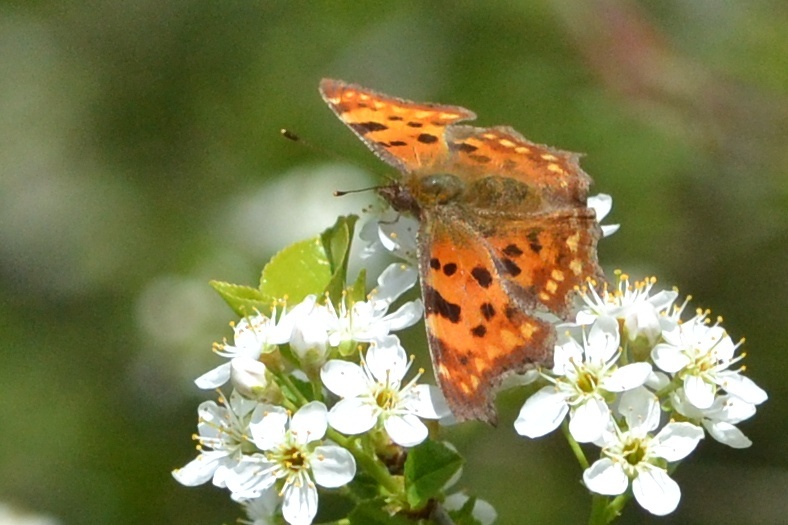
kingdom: Animalia
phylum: Arthropoda
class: Insecta
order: Lepidoptera
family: Nymphalidae
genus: Polygonia
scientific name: Polygonia c-album
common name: Comma
